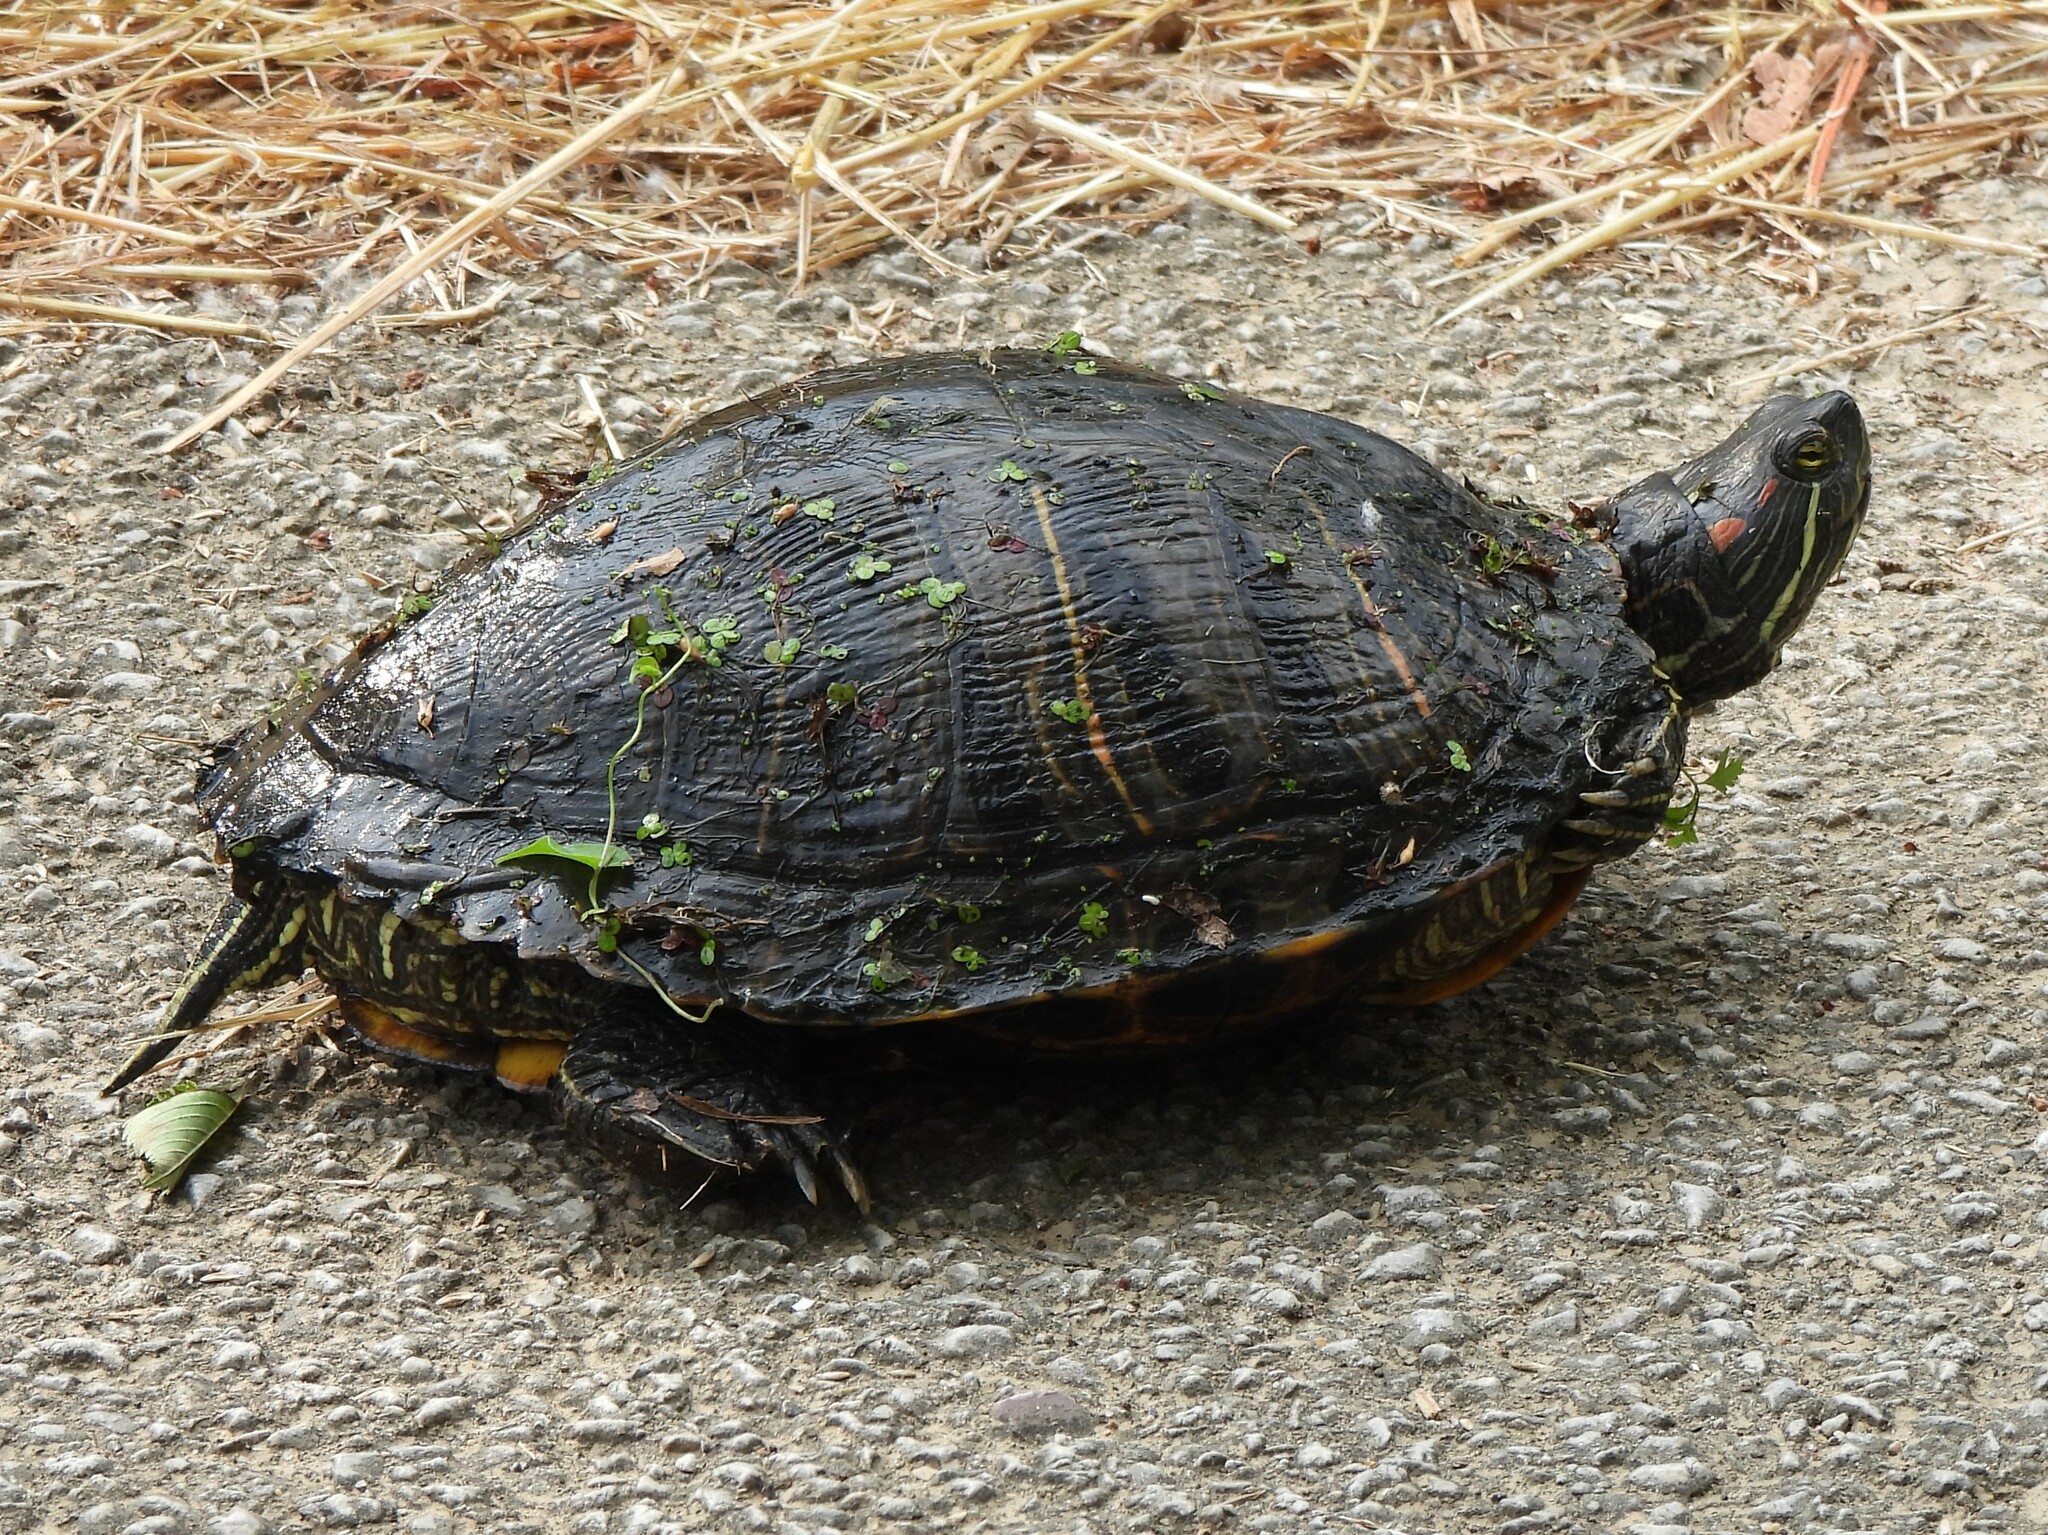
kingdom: Animalia
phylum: Chordata
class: Testudines
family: Emydidae
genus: Trachemys
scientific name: Trachemys scripta
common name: Slider
